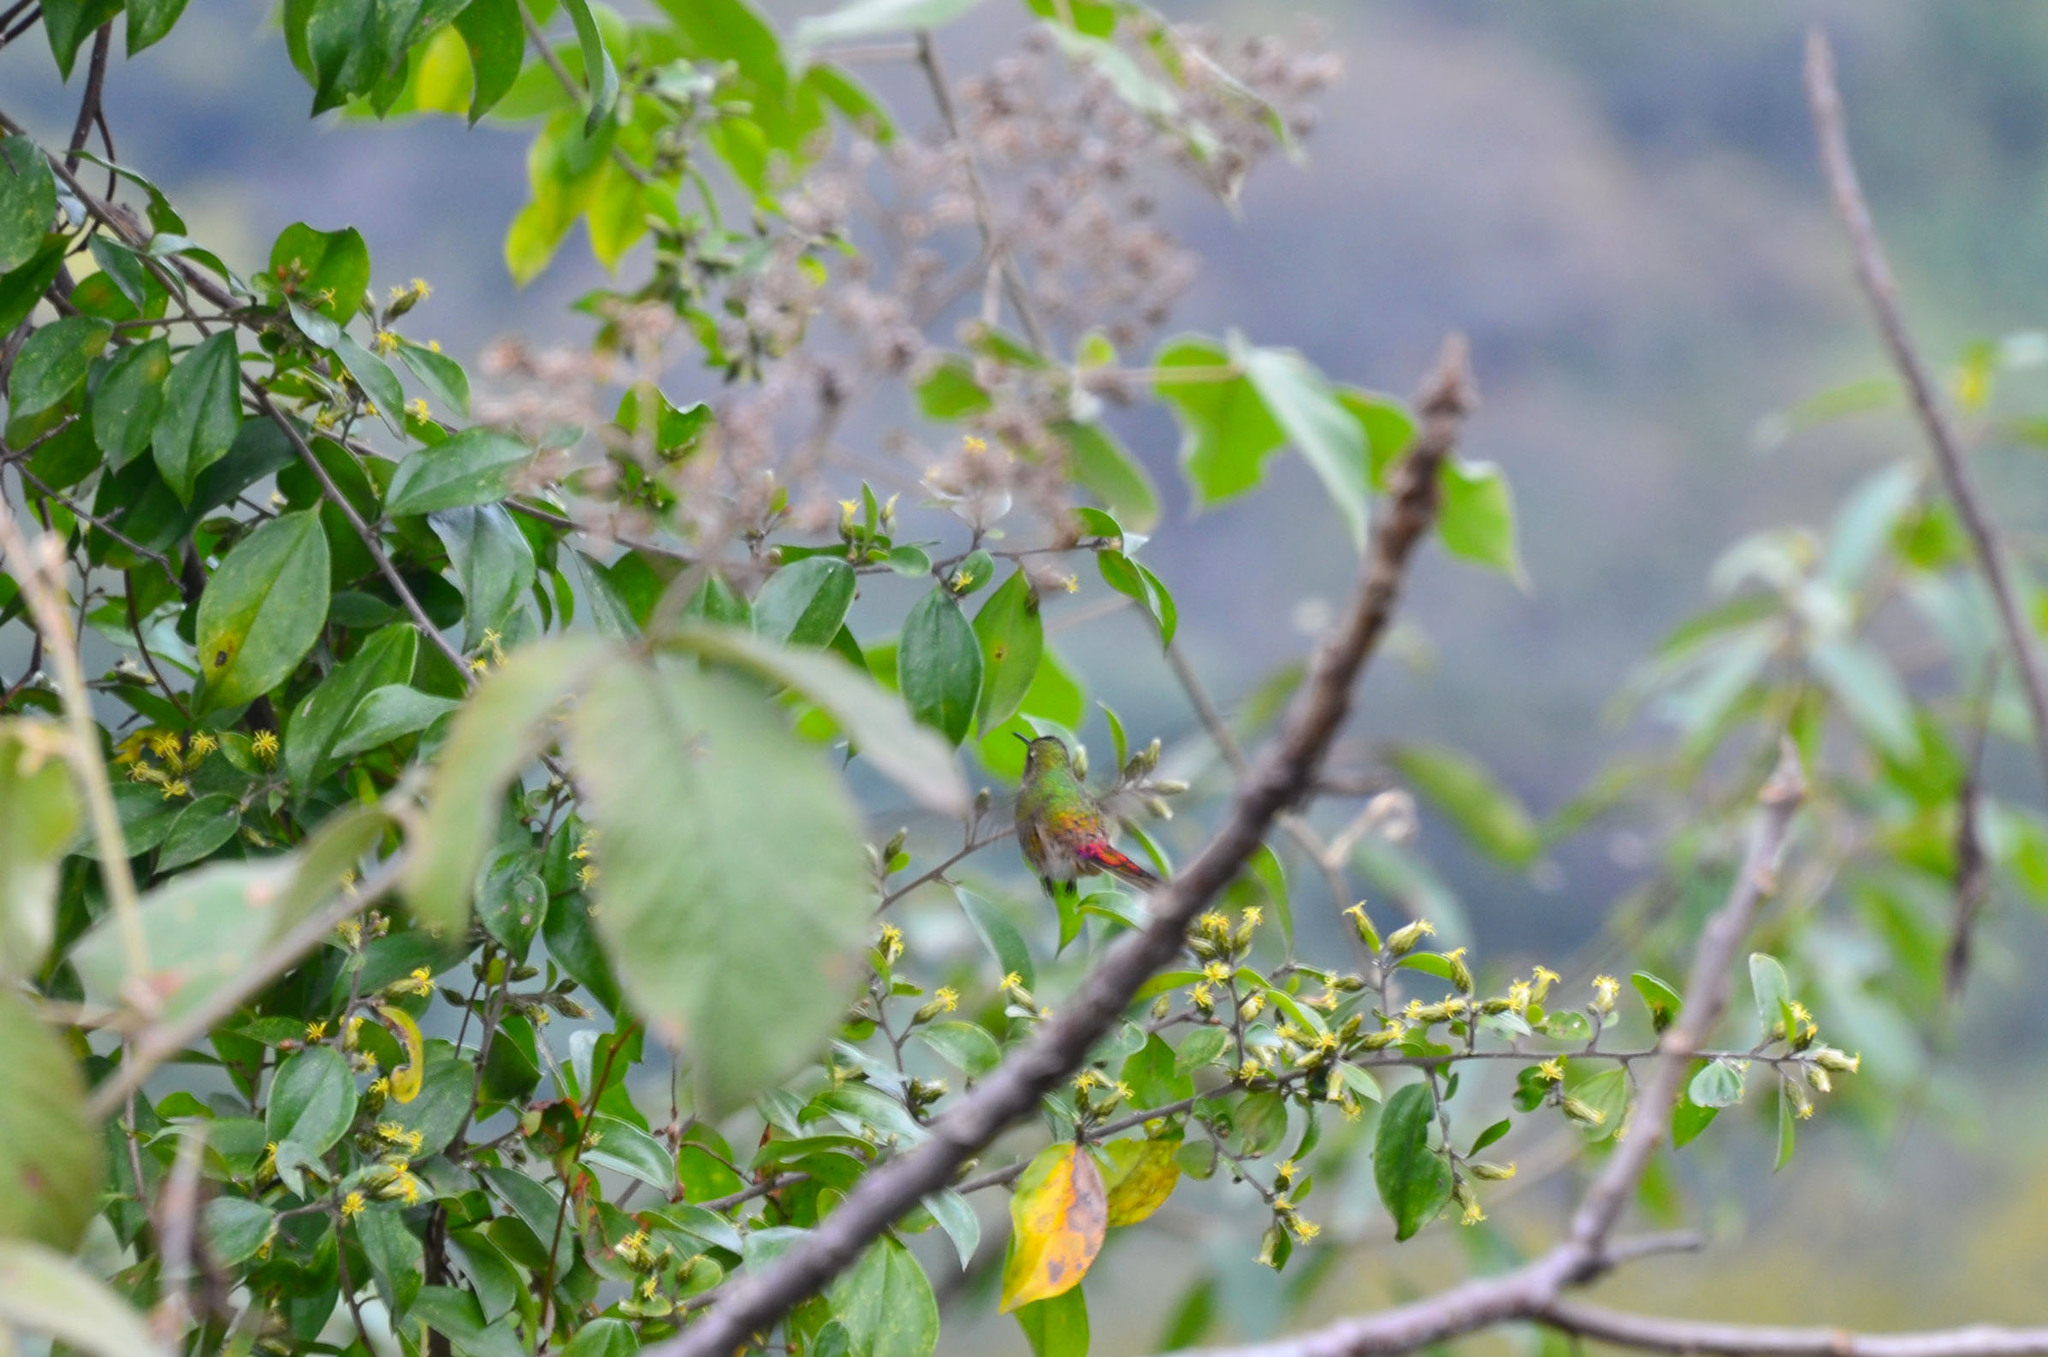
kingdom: Animalia
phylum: Chordata
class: Aves
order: Apodiformes
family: Trochilidae
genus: Sappho
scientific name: Sappho sparganurus
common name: Red-tailed comet
